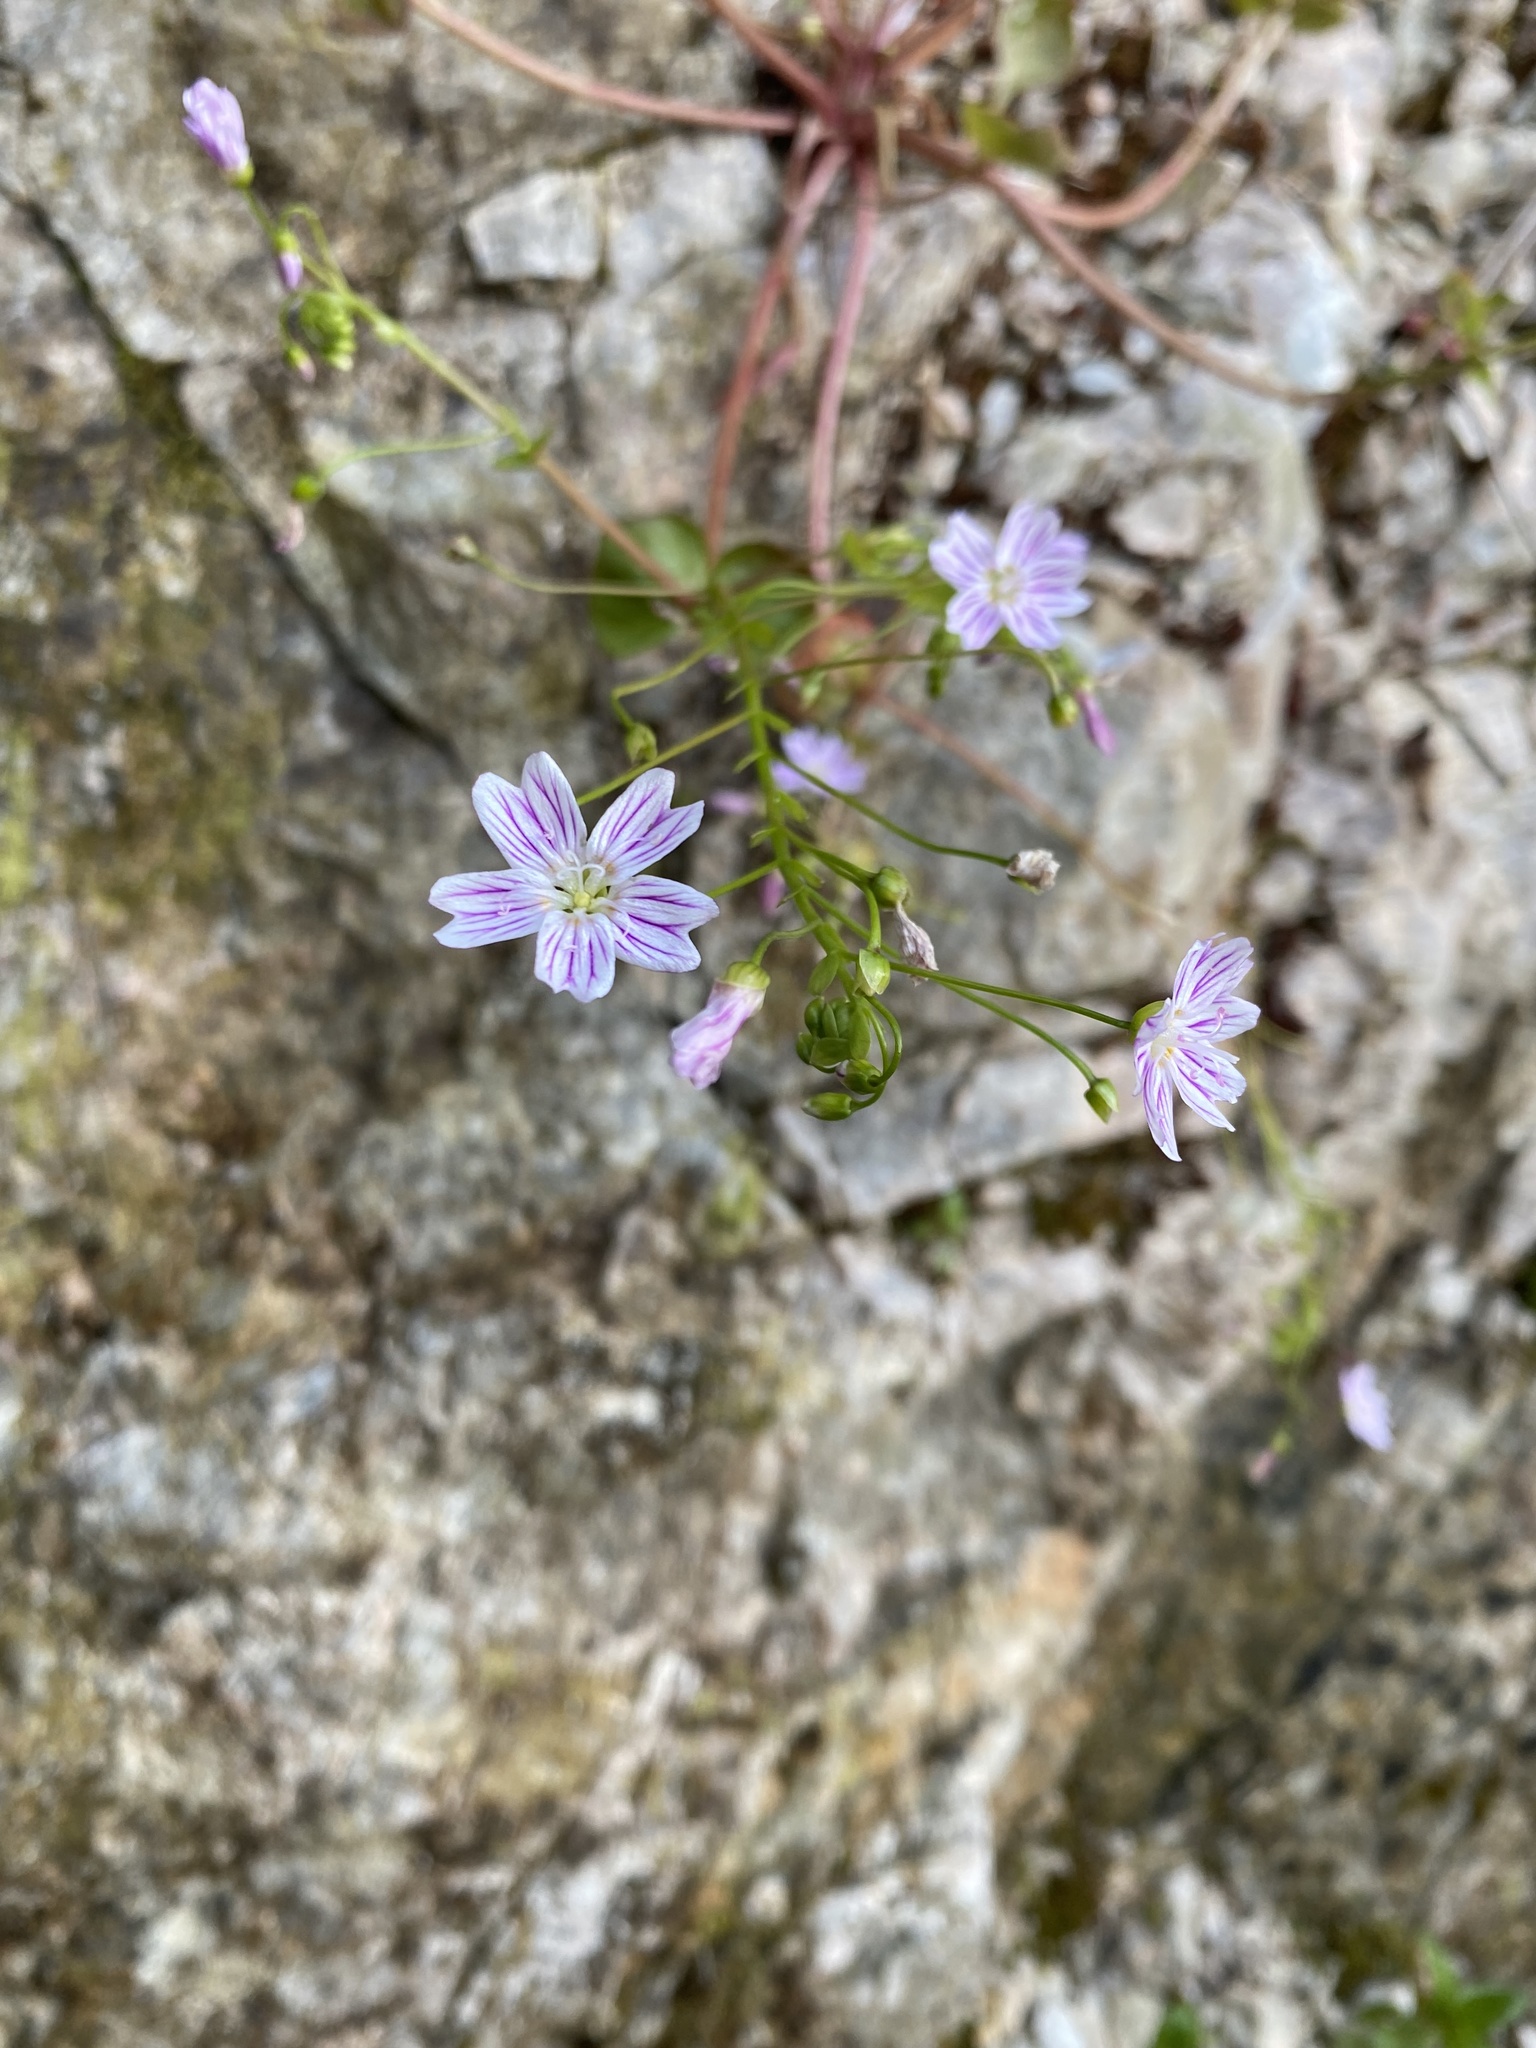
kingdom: Plantae
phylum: Tracheophyta
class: Magnoliopsida
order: Caryophyllales
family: Montiaceae
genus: Claytonia
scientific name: Claytonia sibirica
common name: Pink purslane
